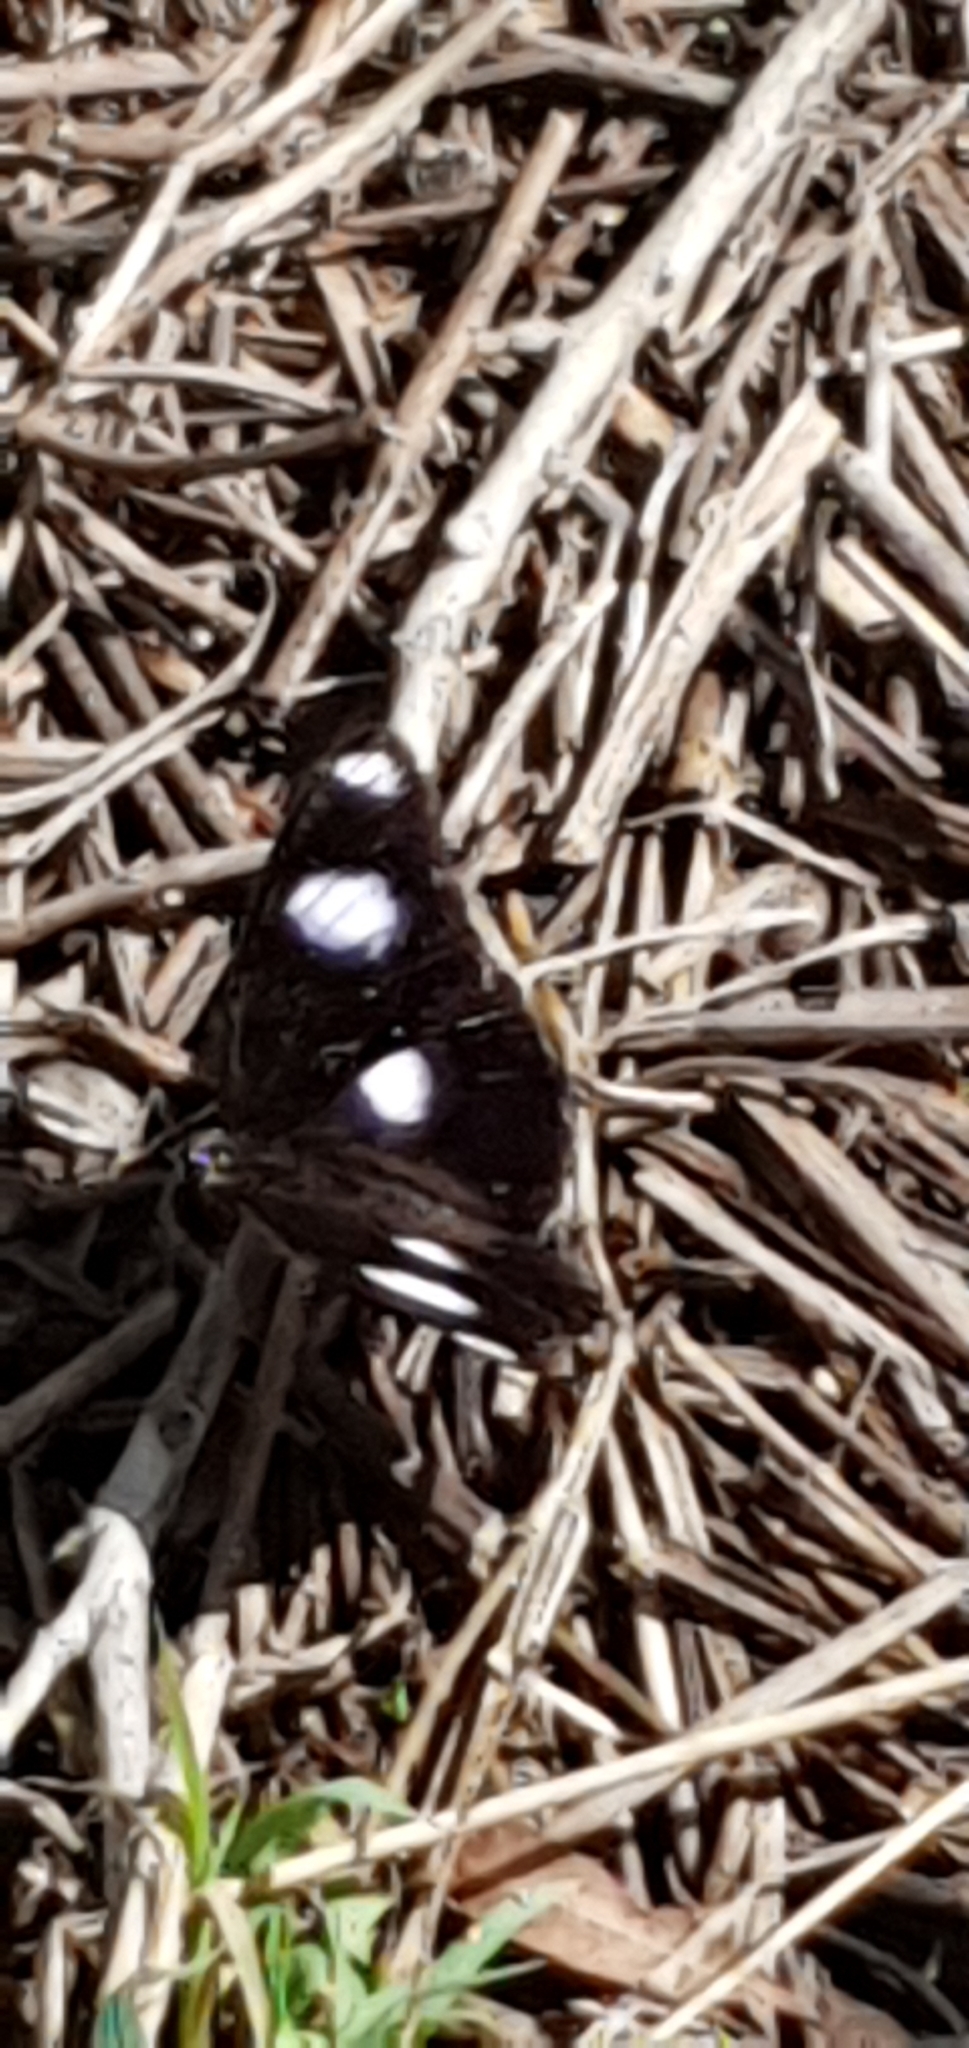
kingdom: Animalia
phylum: Arthropoda
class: Insecta
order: Lepidoptera
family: Nymphalidae
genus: Hypolimnas
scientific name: Hypolimnas bolina
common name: Great eggfly
